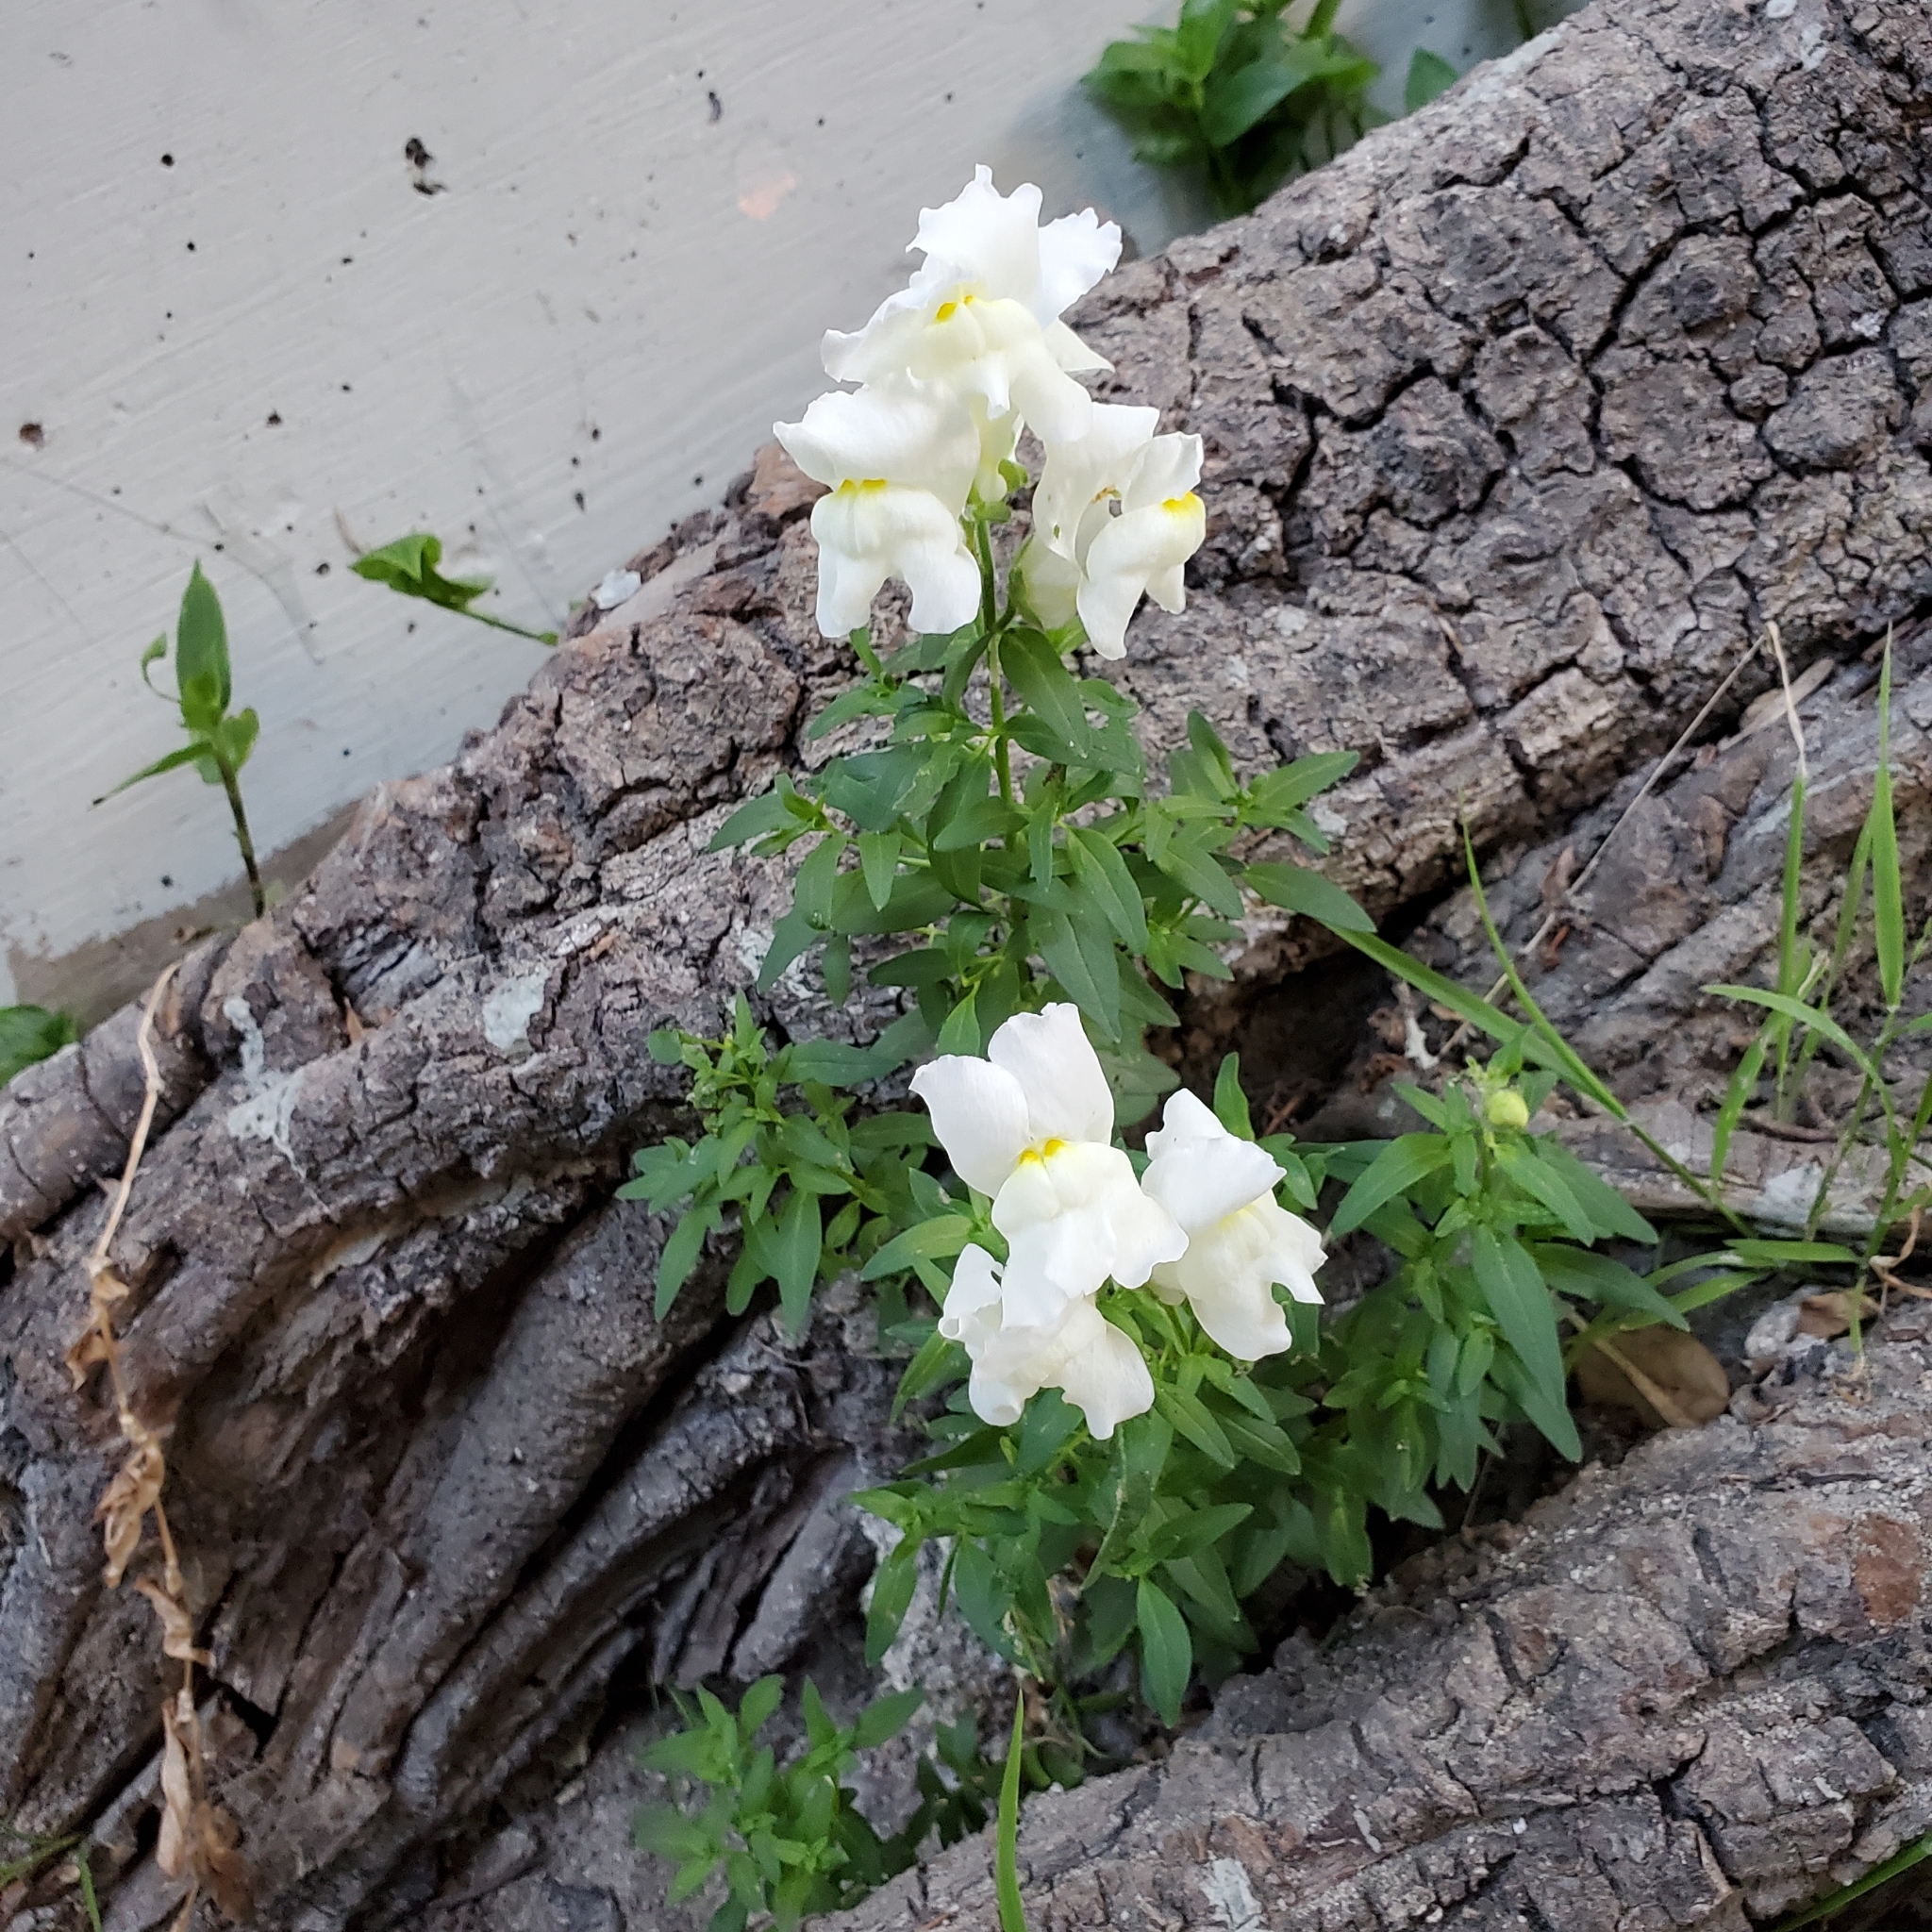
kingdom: Plantae
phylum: Tracheophyta
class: Magnoliopsida
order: Lamiales
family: Plantaginaceae
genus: Antirrhinum
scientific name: Antirrhinum majus
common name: Snapdragon
